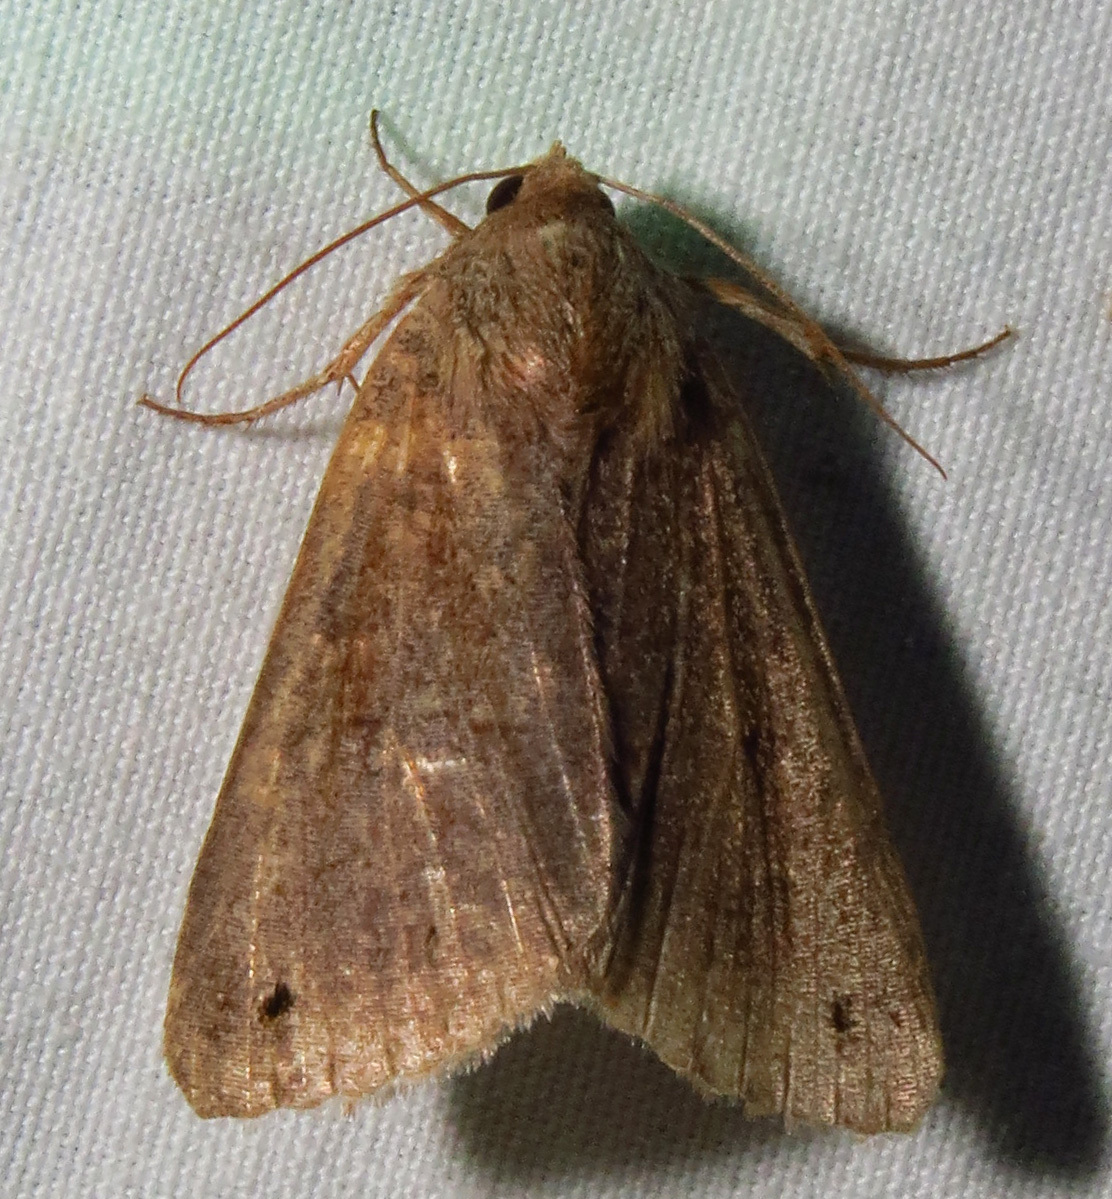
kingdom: Animalia
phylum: Arthropoda
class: Insecta
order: Lepidoptera
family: Erebidae
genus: Cissusa
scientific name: Cissusa spadix
